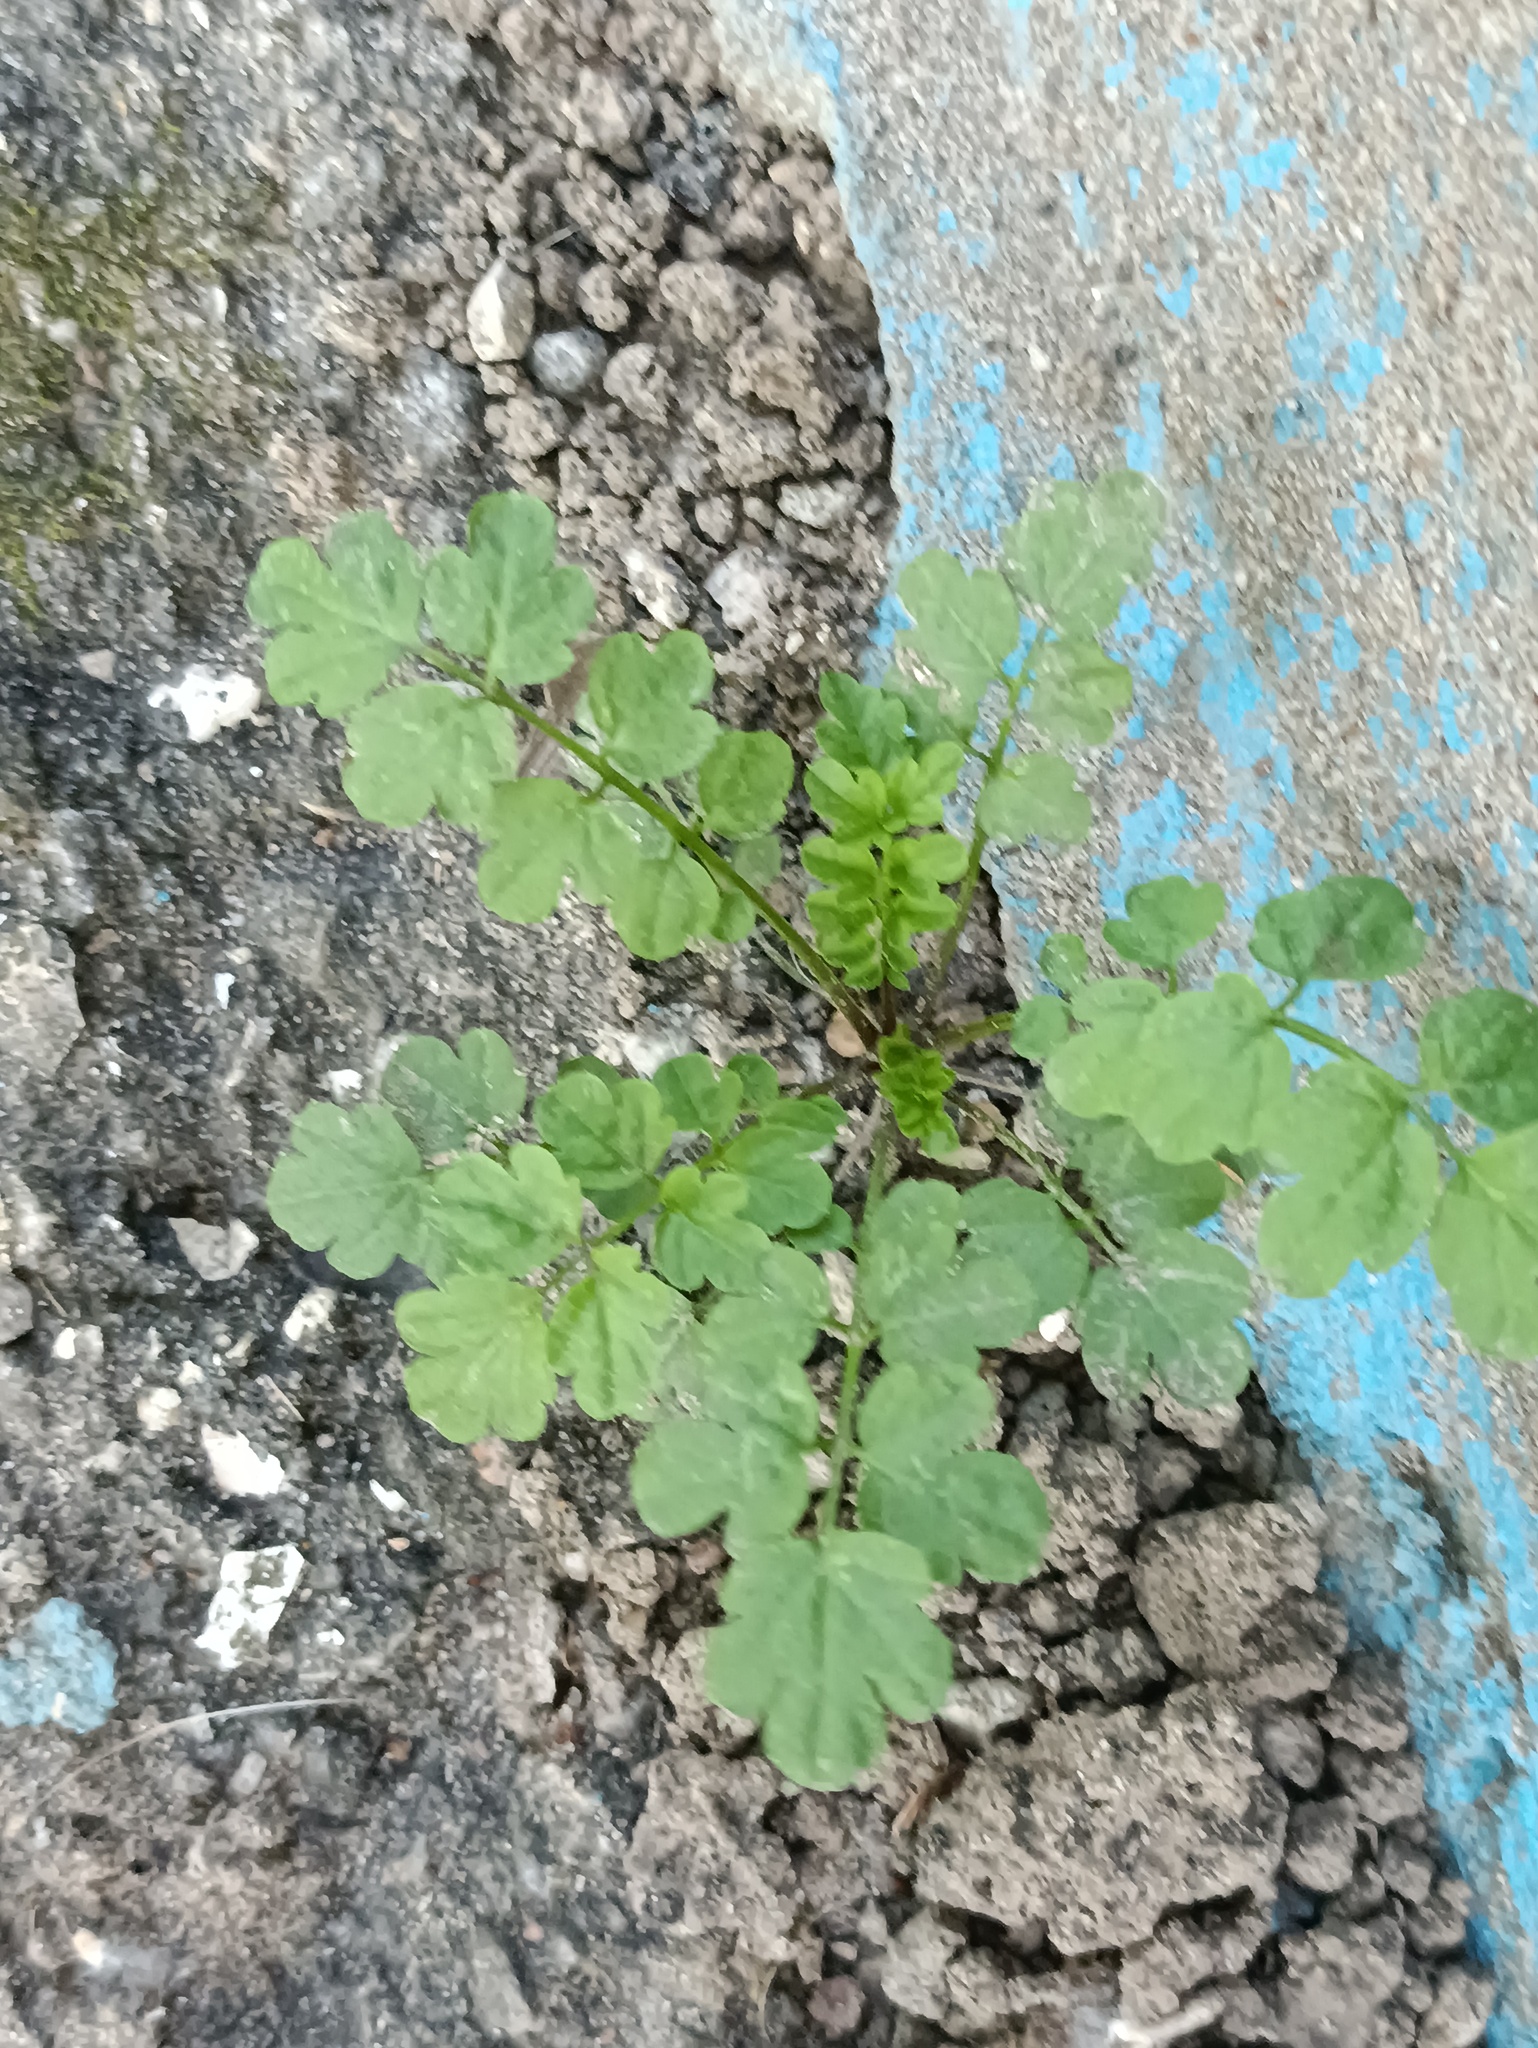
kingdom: Plantae
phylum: Tracheophyta
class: Magnoliopsida
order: Brassicales
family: Brassicaceae
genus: Cardamine
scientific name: Cardamine impatiens
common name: Narrow-leaved bitter-cress
